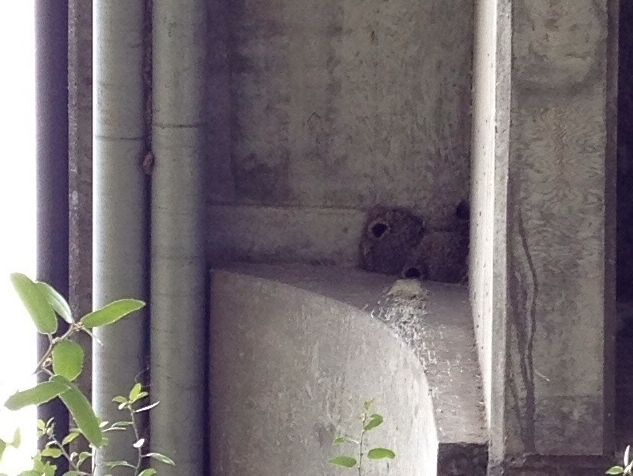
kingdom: Animalia
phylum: Chordata
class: Aves
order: Passeriformes
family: Hirundinidae
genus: Petrochelidon
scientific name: Petrochelidon pyrrhonota
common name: American cliff swallow
